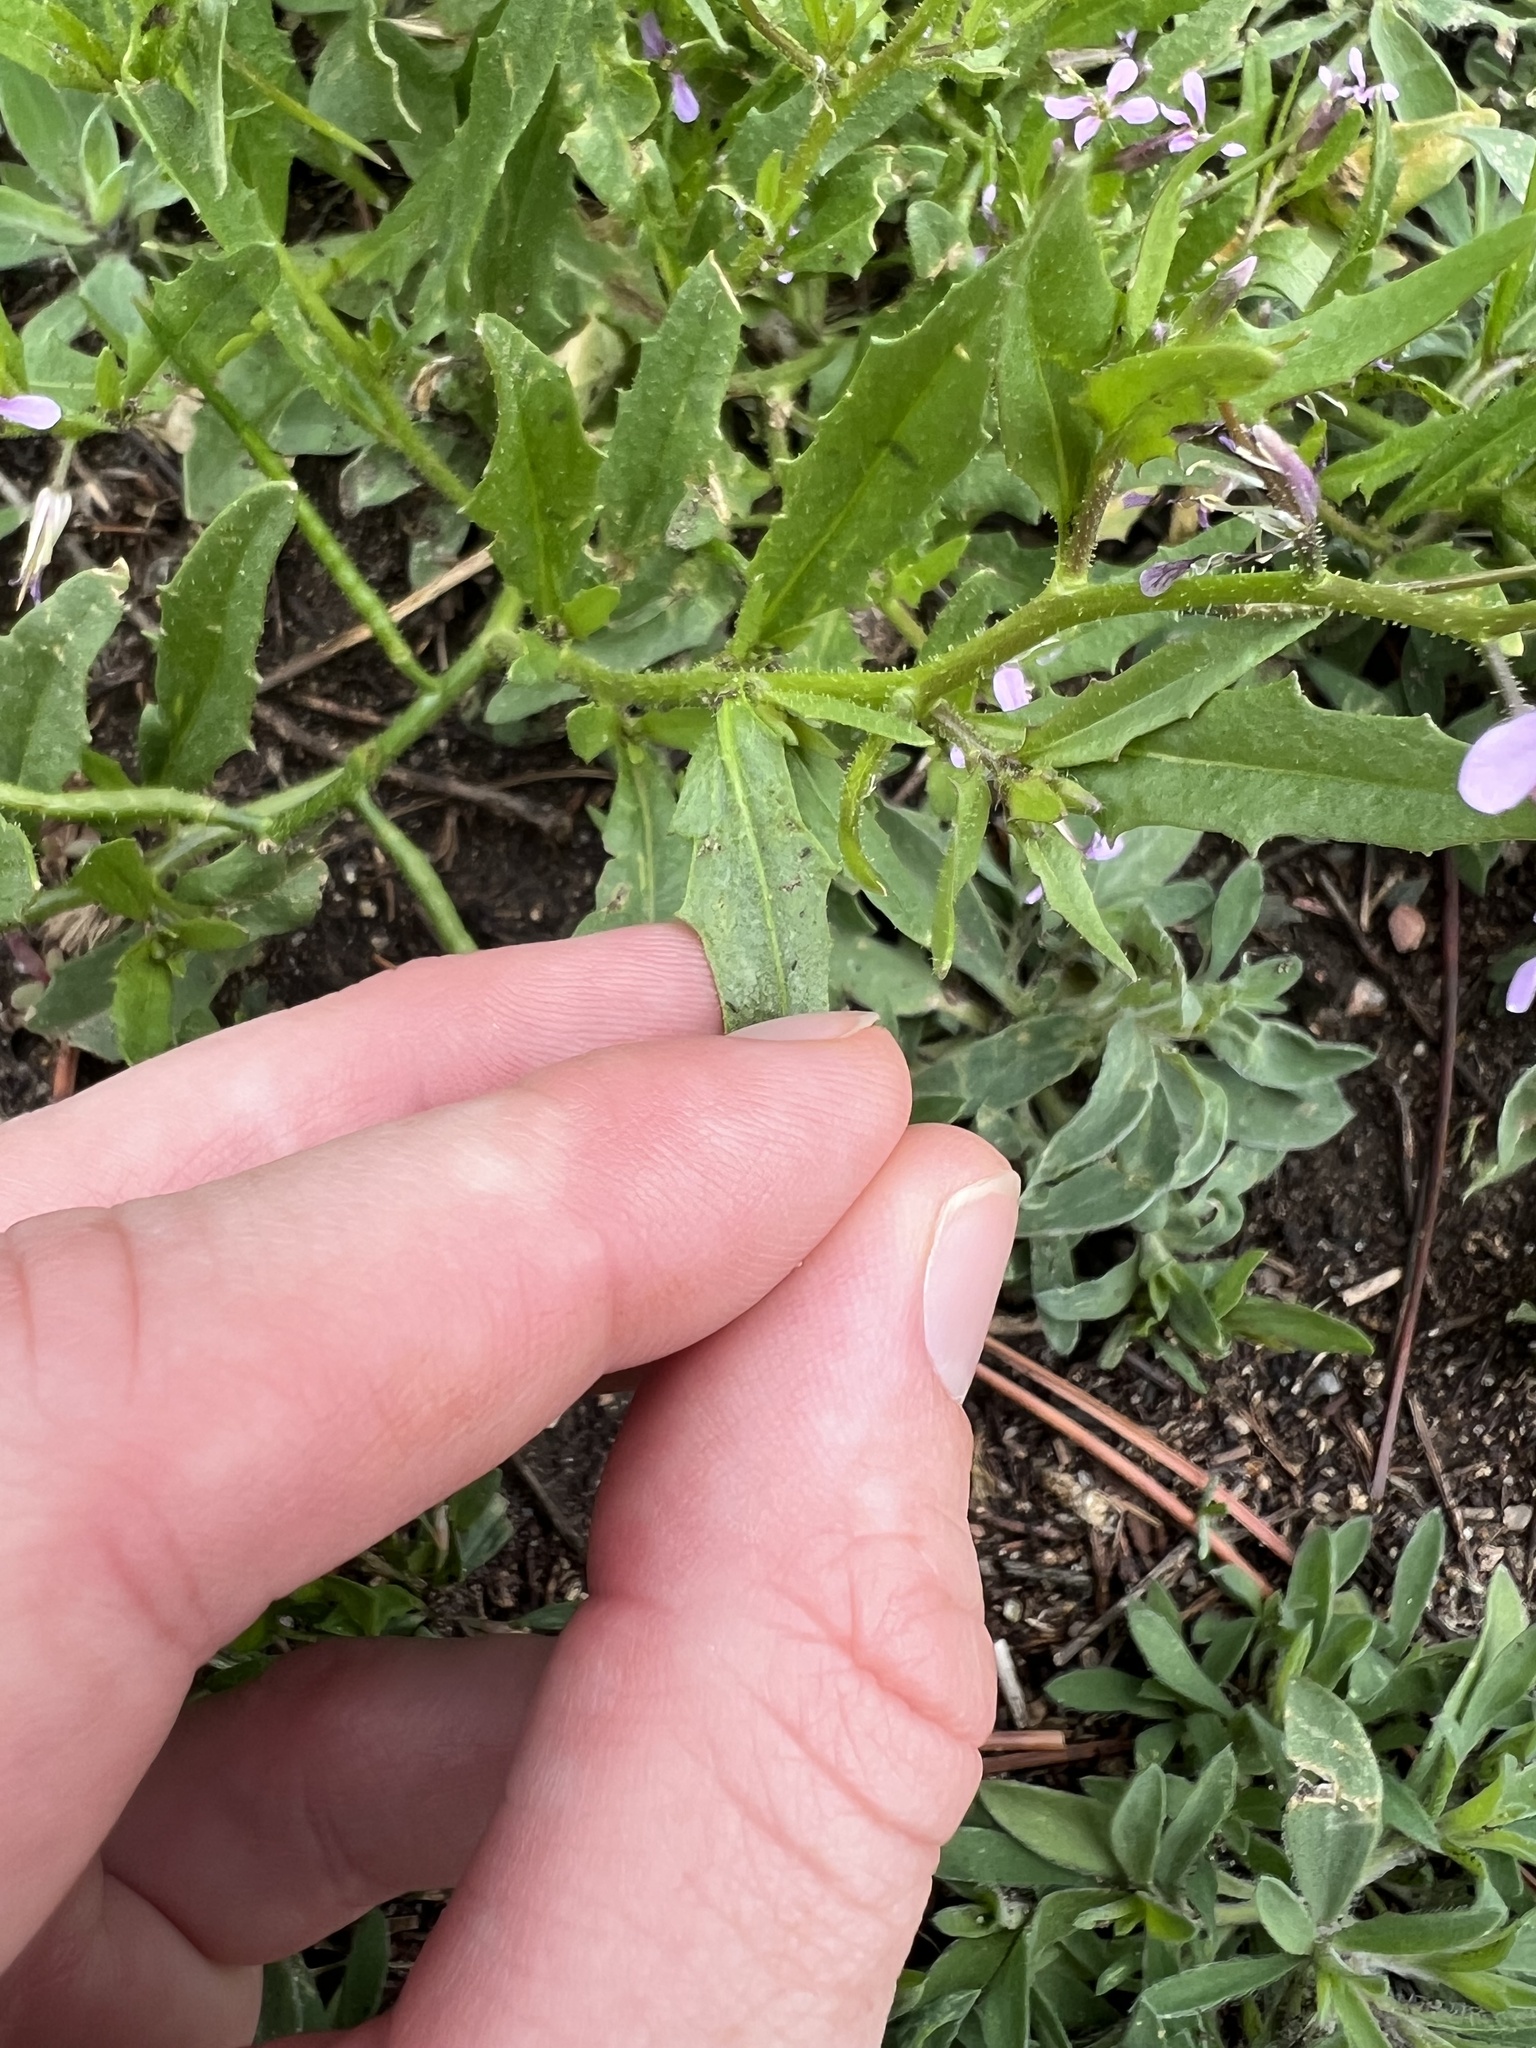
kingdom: Plantae
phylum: Tracheophyta
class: Magnoliopsida
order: Brassicales
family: Brassicaceae
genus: Chorispora
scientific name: Chorispora tenella
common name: Crossflower
